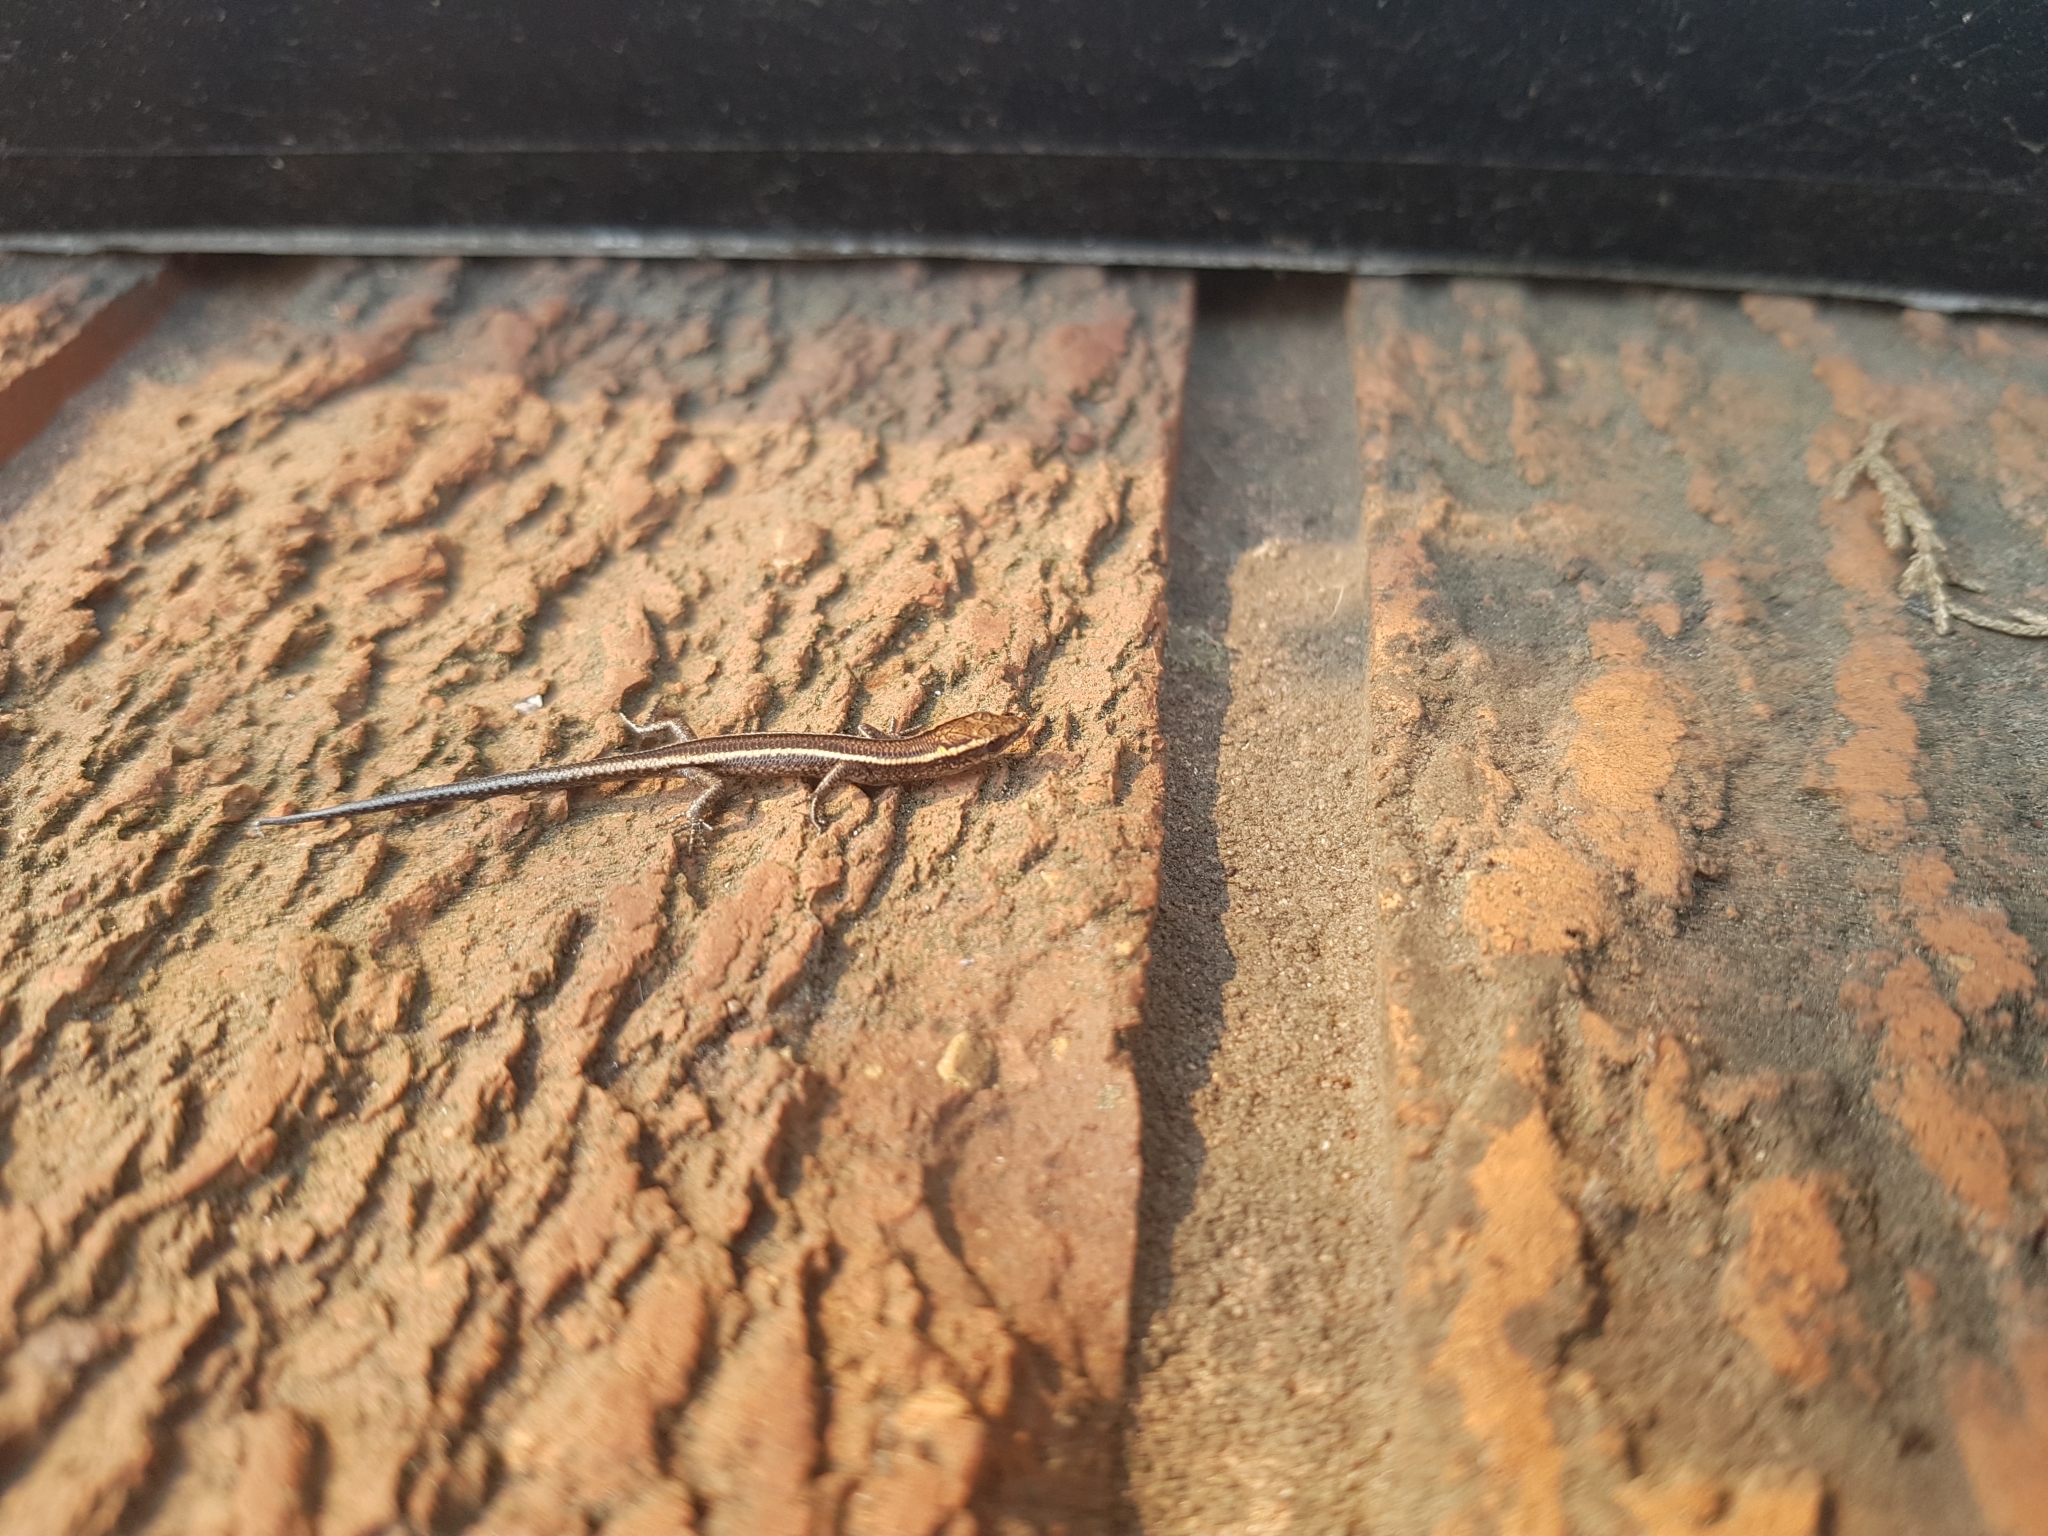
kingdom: Animalia
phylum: Chordata
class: Squamata
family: Scincidae
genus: Cryptoblepharus
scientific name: Cryptoblepharus pulcher
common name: Elegant snake-eyed skink
